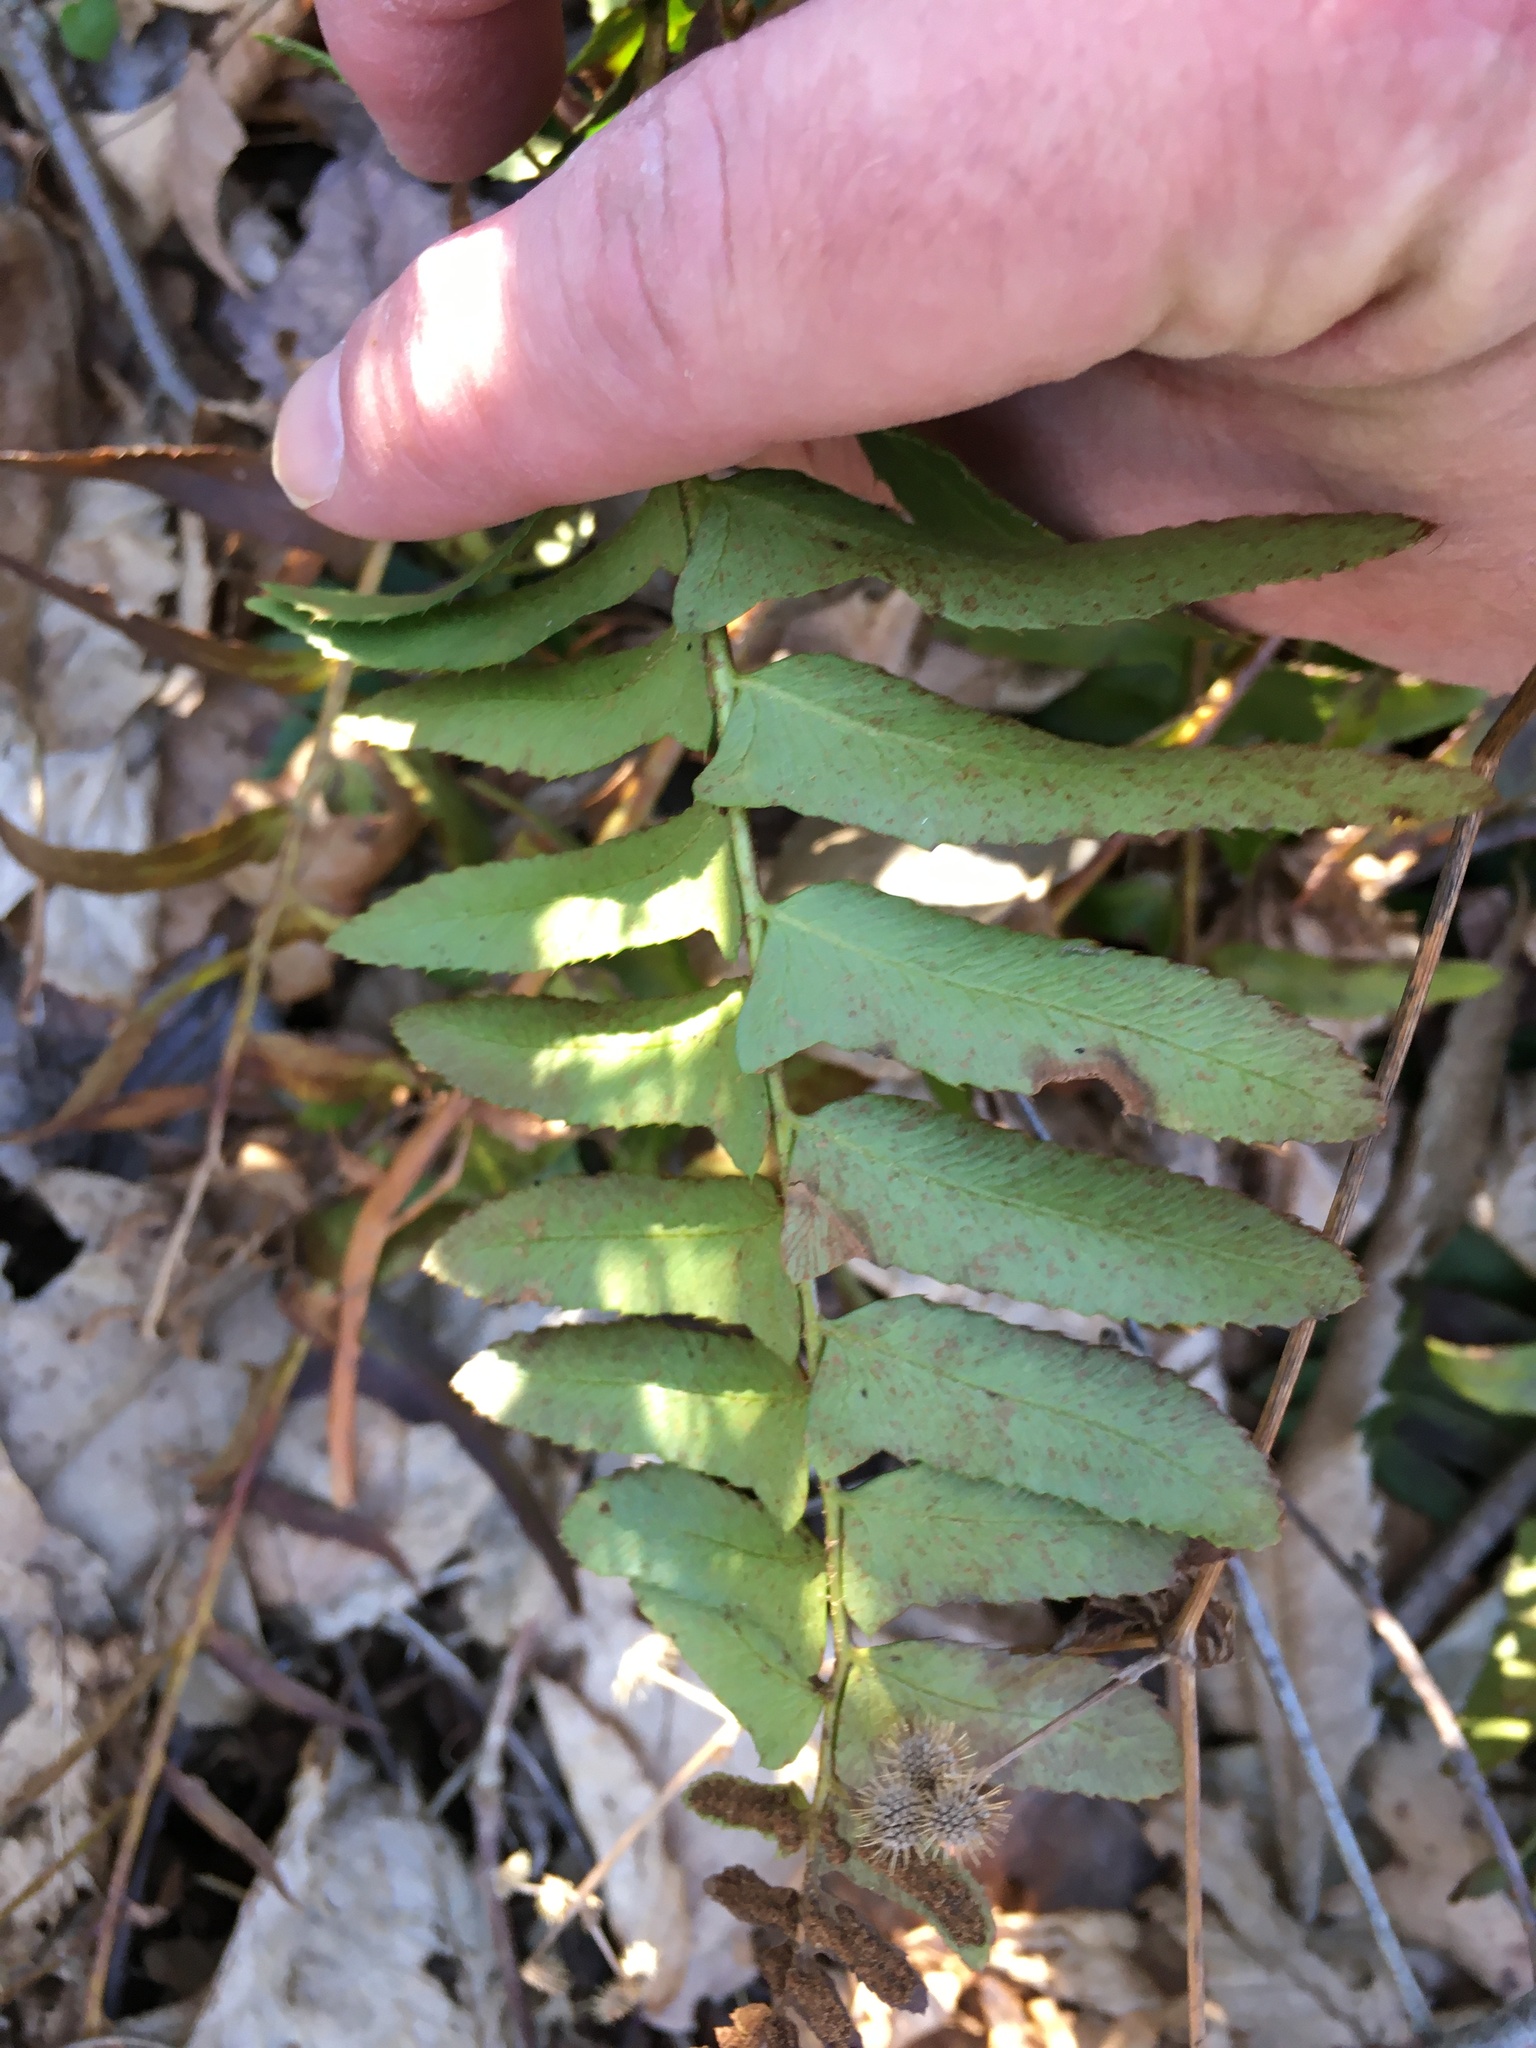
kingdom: Plantae
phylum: Tracheophyta
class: Polypodiopsida
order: Polypodiales
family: Dryopteridaceae
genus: Polystichum
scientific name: Polystichum acrostichoides
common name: Christmas fern
